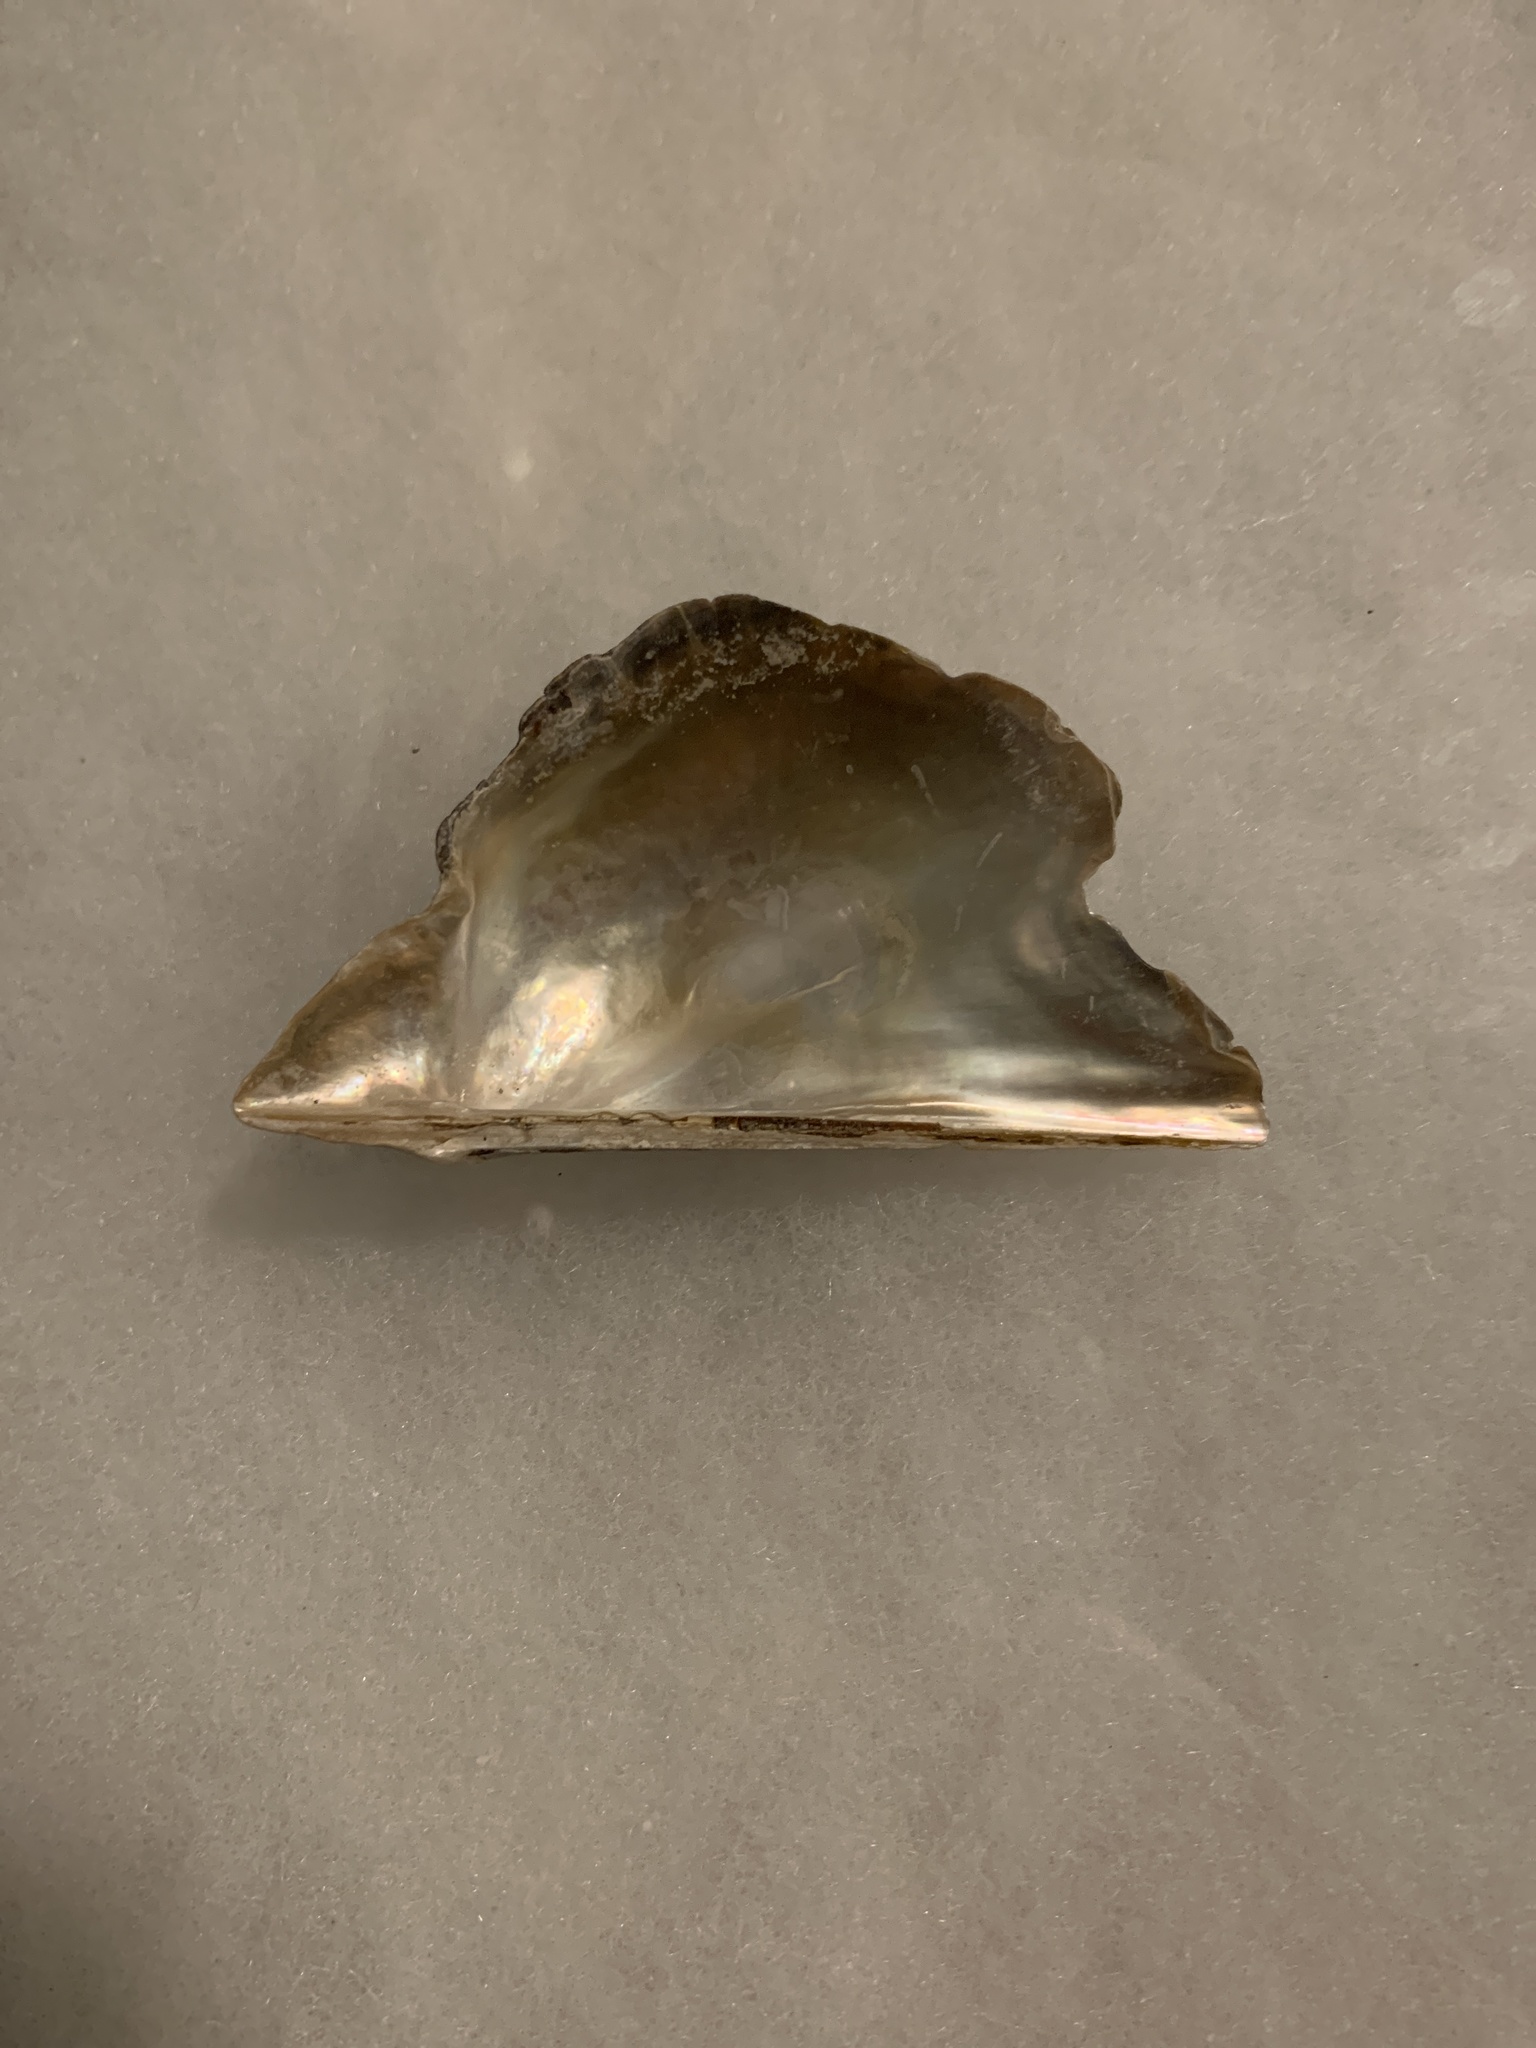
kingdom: Animalia
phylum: Mollusca
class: Bivalvia
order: Ostreida
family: Pteriidae
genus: Pteria
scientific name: Pteria colymbus
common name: Atlantic wing-oyster
